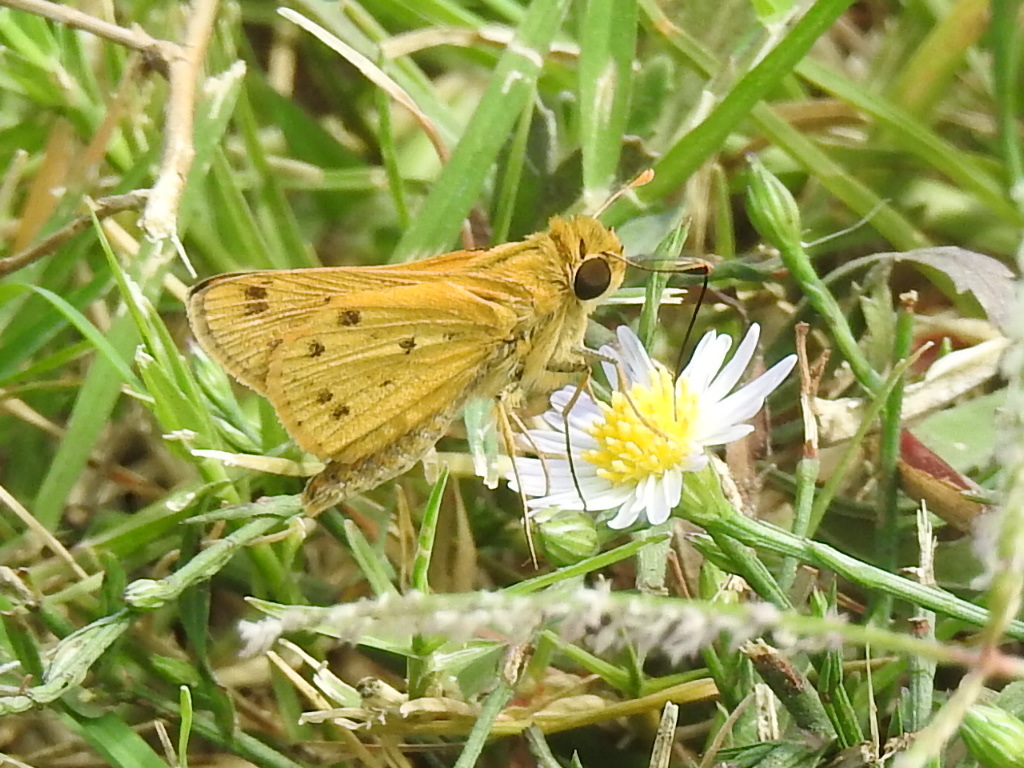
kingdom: Animalia
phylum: Arthropoda
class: Insecta
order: Lepidoptera
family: Hesperiidae
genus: Hylephila
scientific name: Hylephila phyleus
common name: Fiery skipper
